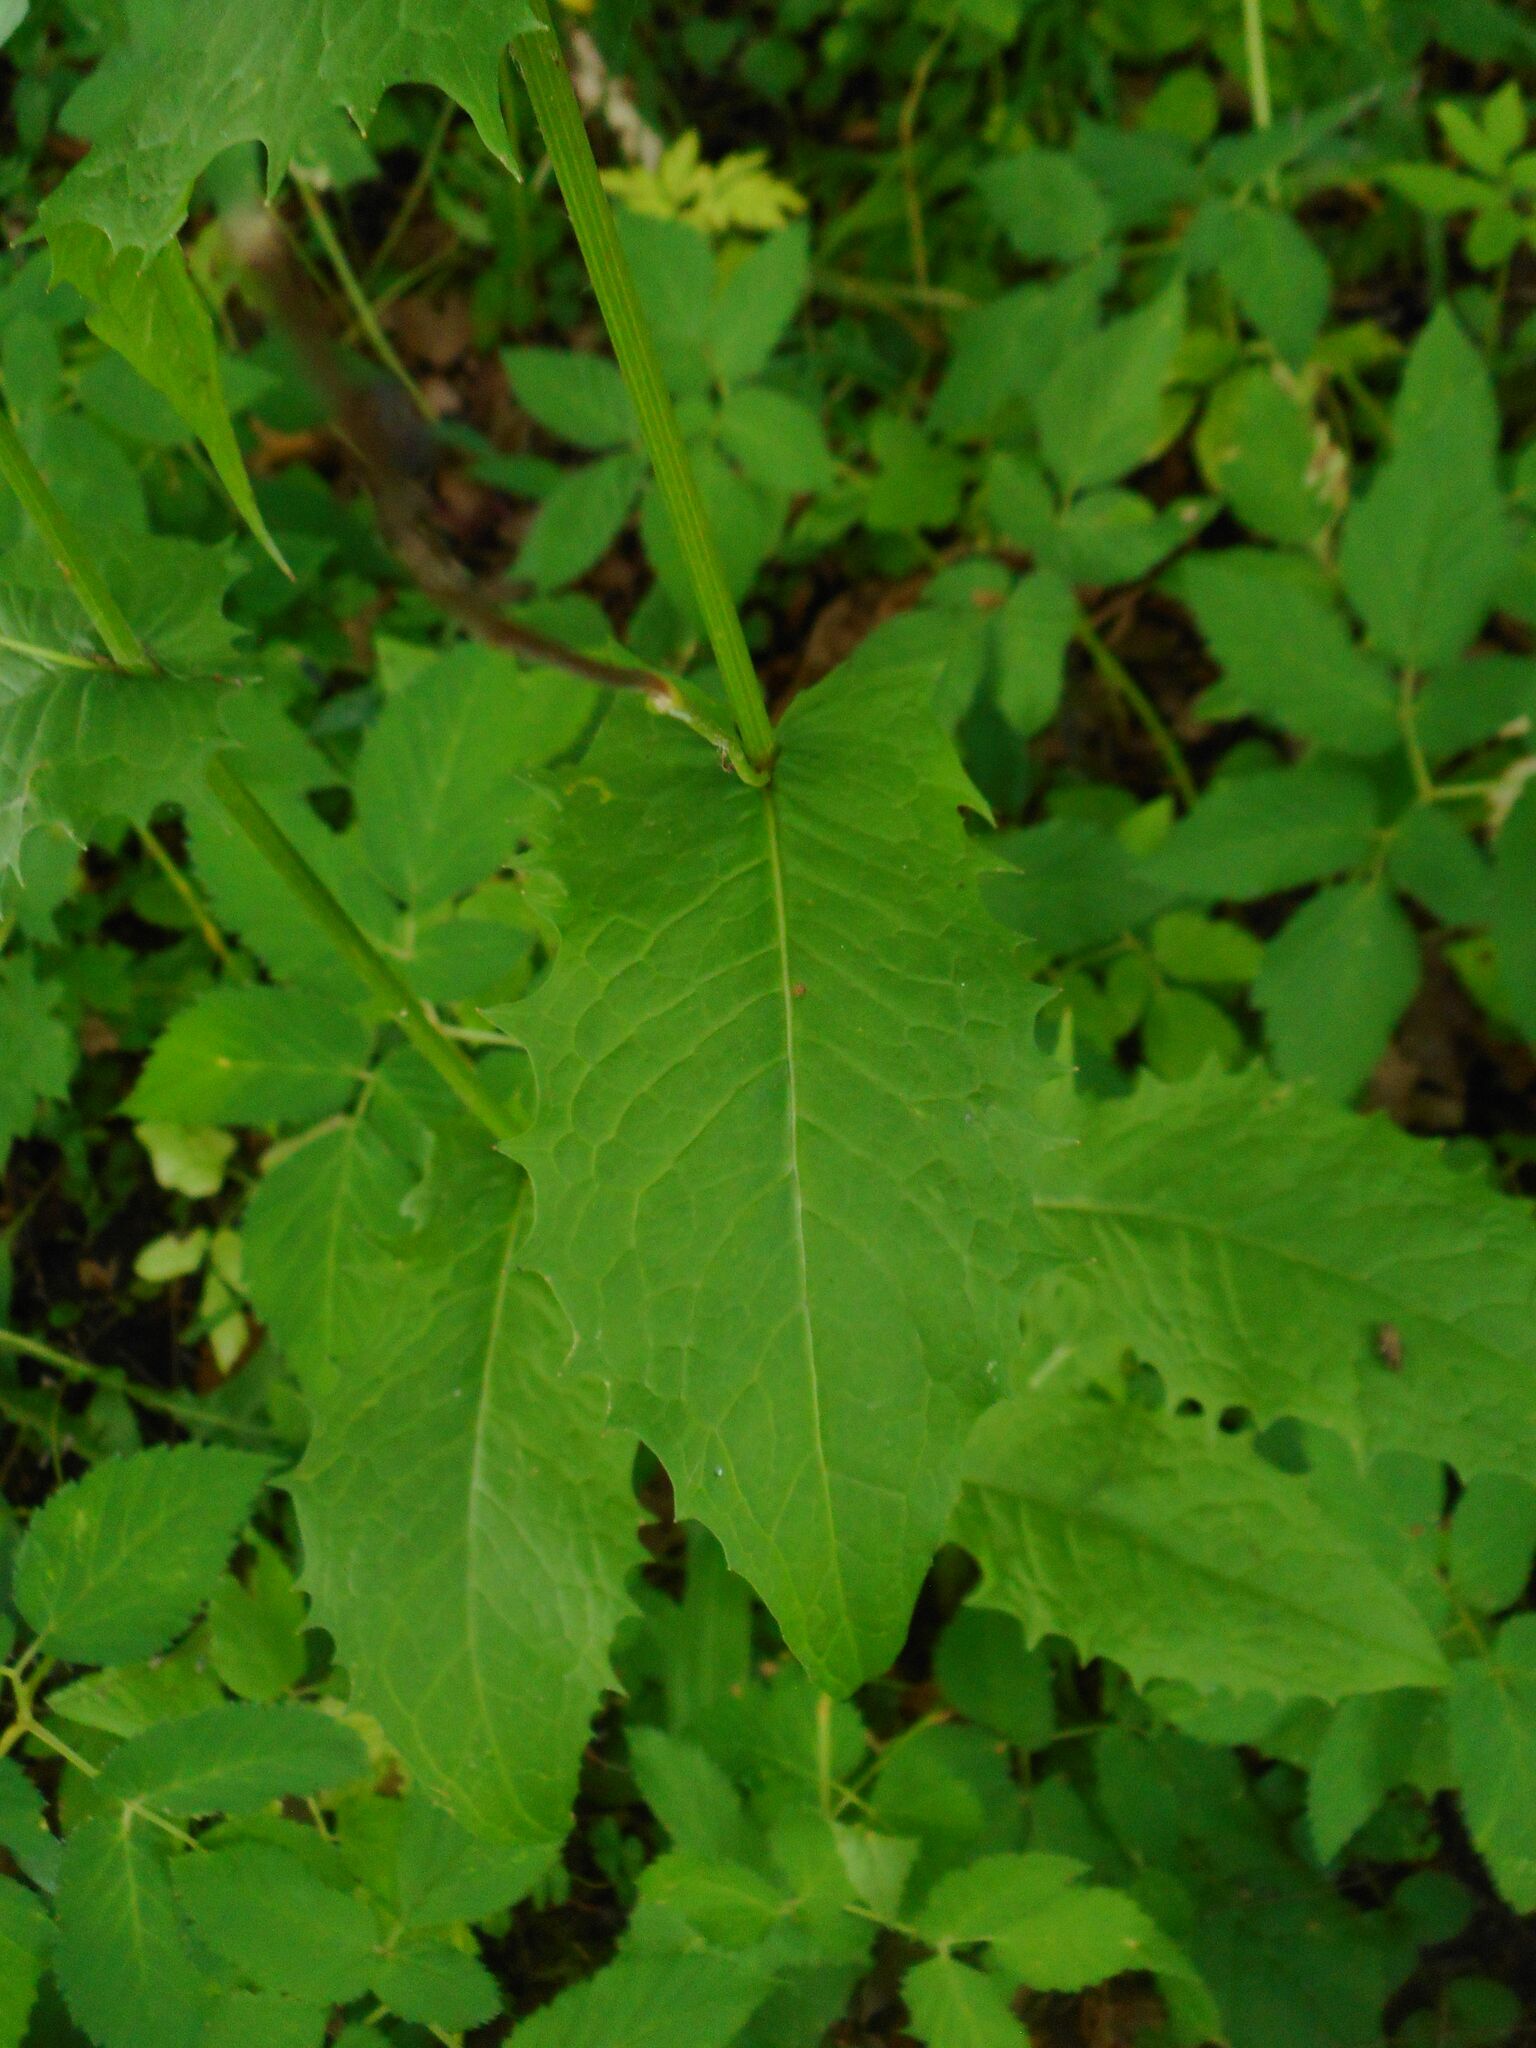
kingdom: Plantae
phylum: Tracheophyta
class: Magnoliopsida
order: Asterales
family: Asteraceae
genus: Crepis
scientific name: Crepis paludosa
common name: Marsh hawk's-beard
